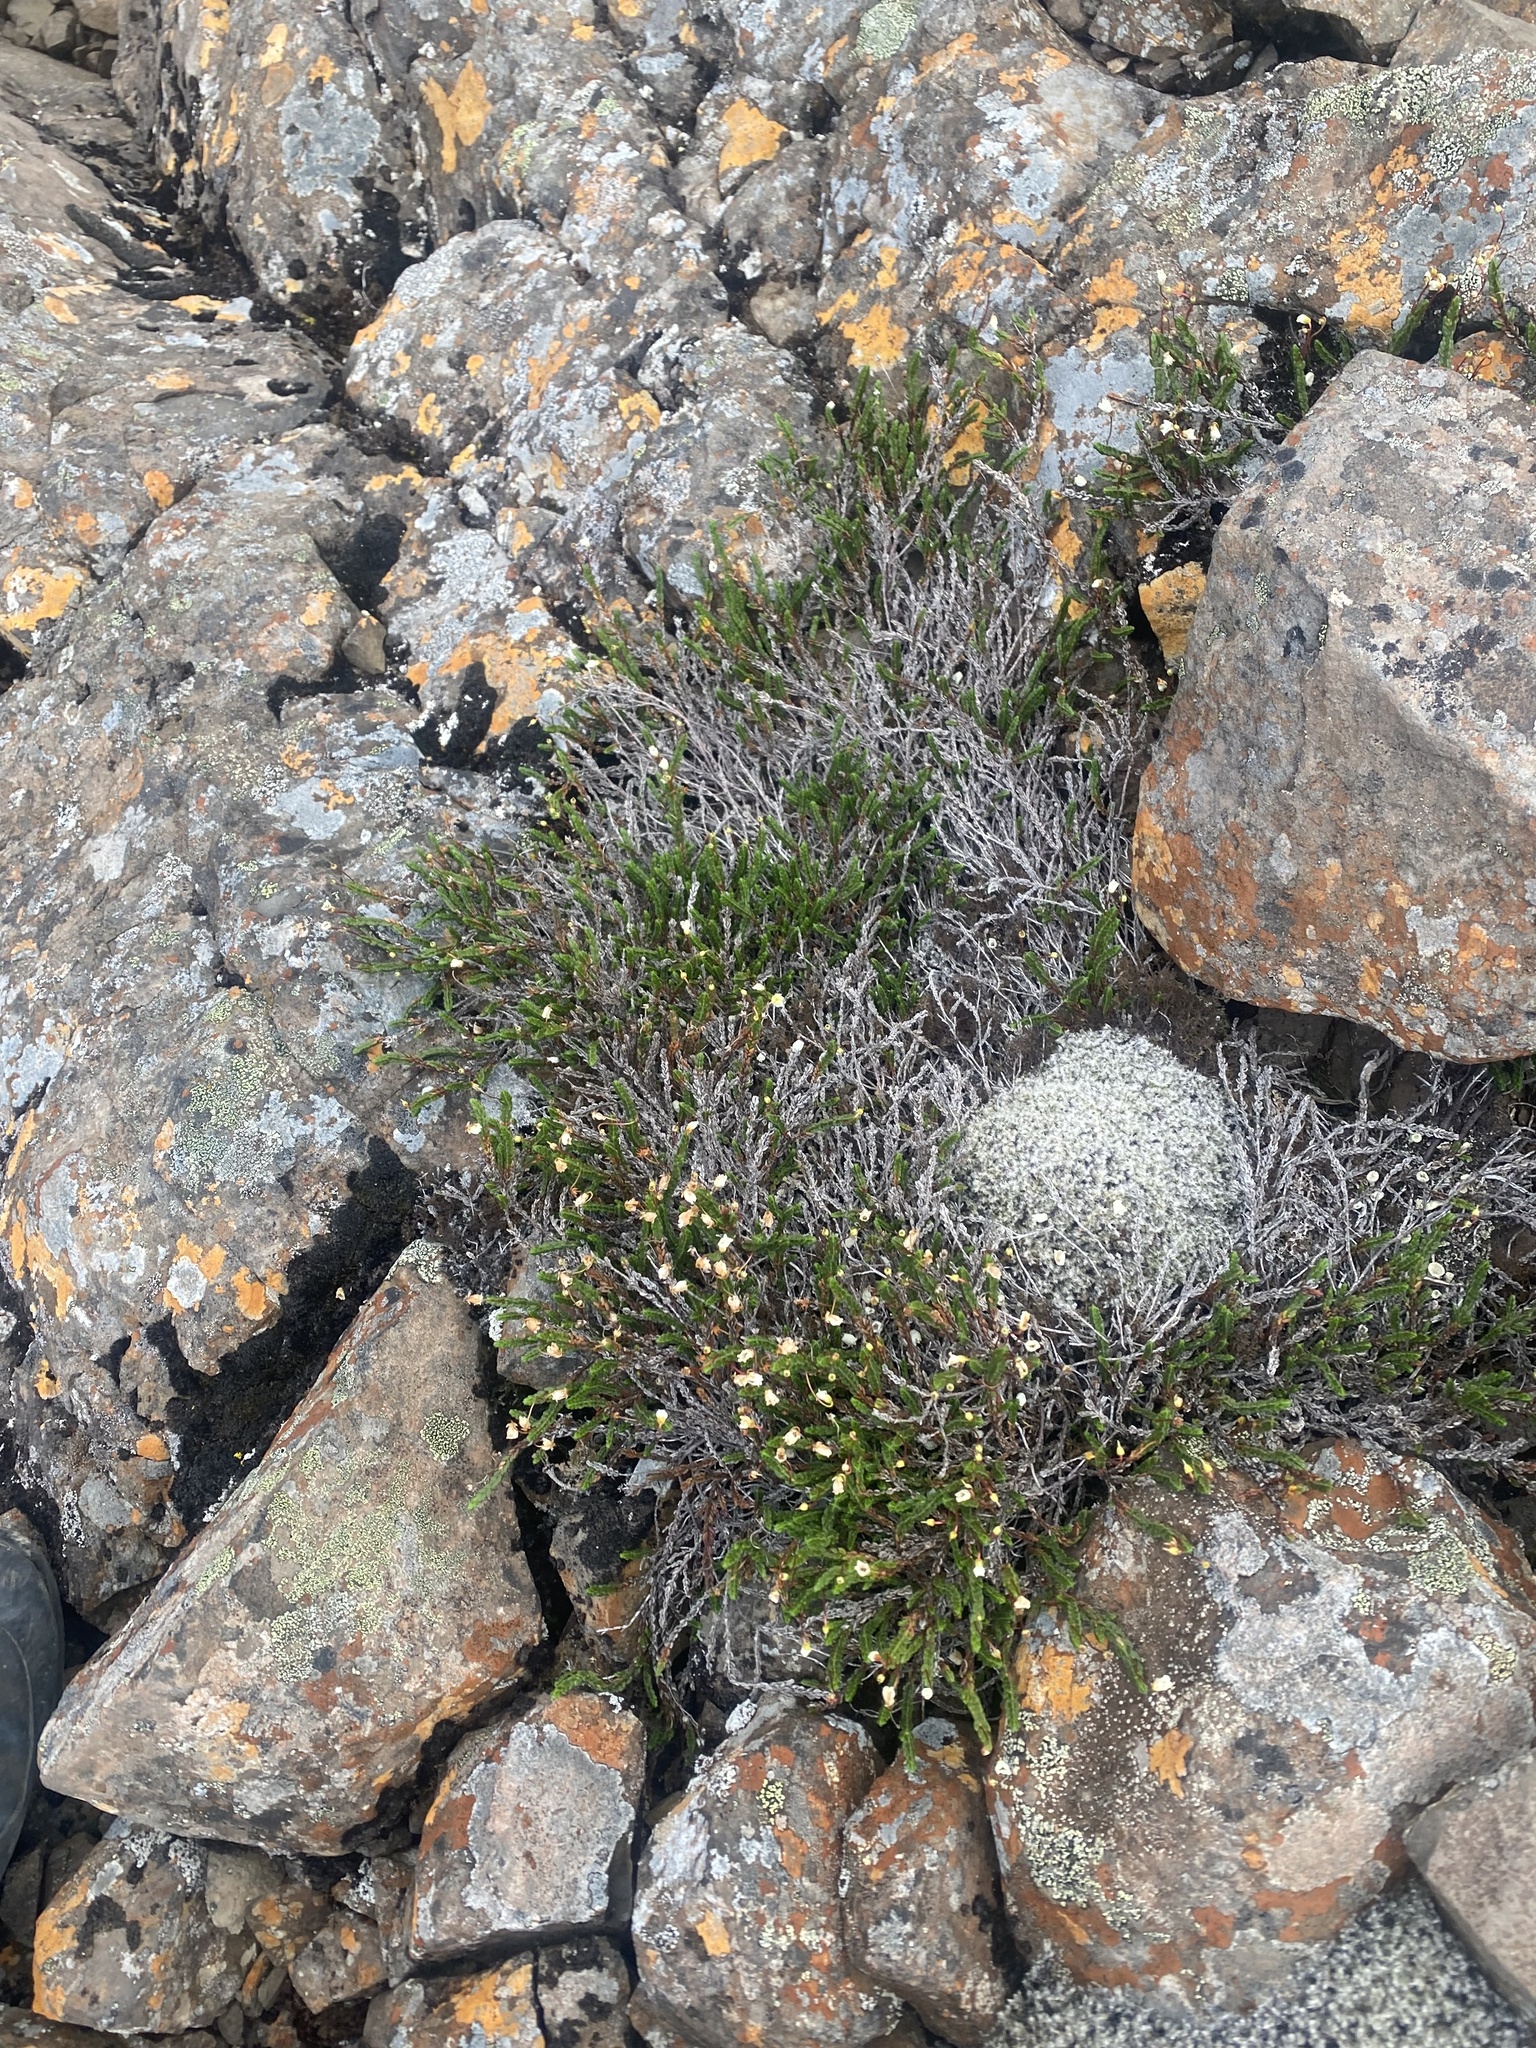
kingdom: Plantae
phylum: Tracheophyta
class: Magnoliopsida
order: Ericales
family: Ericaceae
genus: Cassiope
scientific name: Cassiope tetragona
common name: Arctic bell heather
